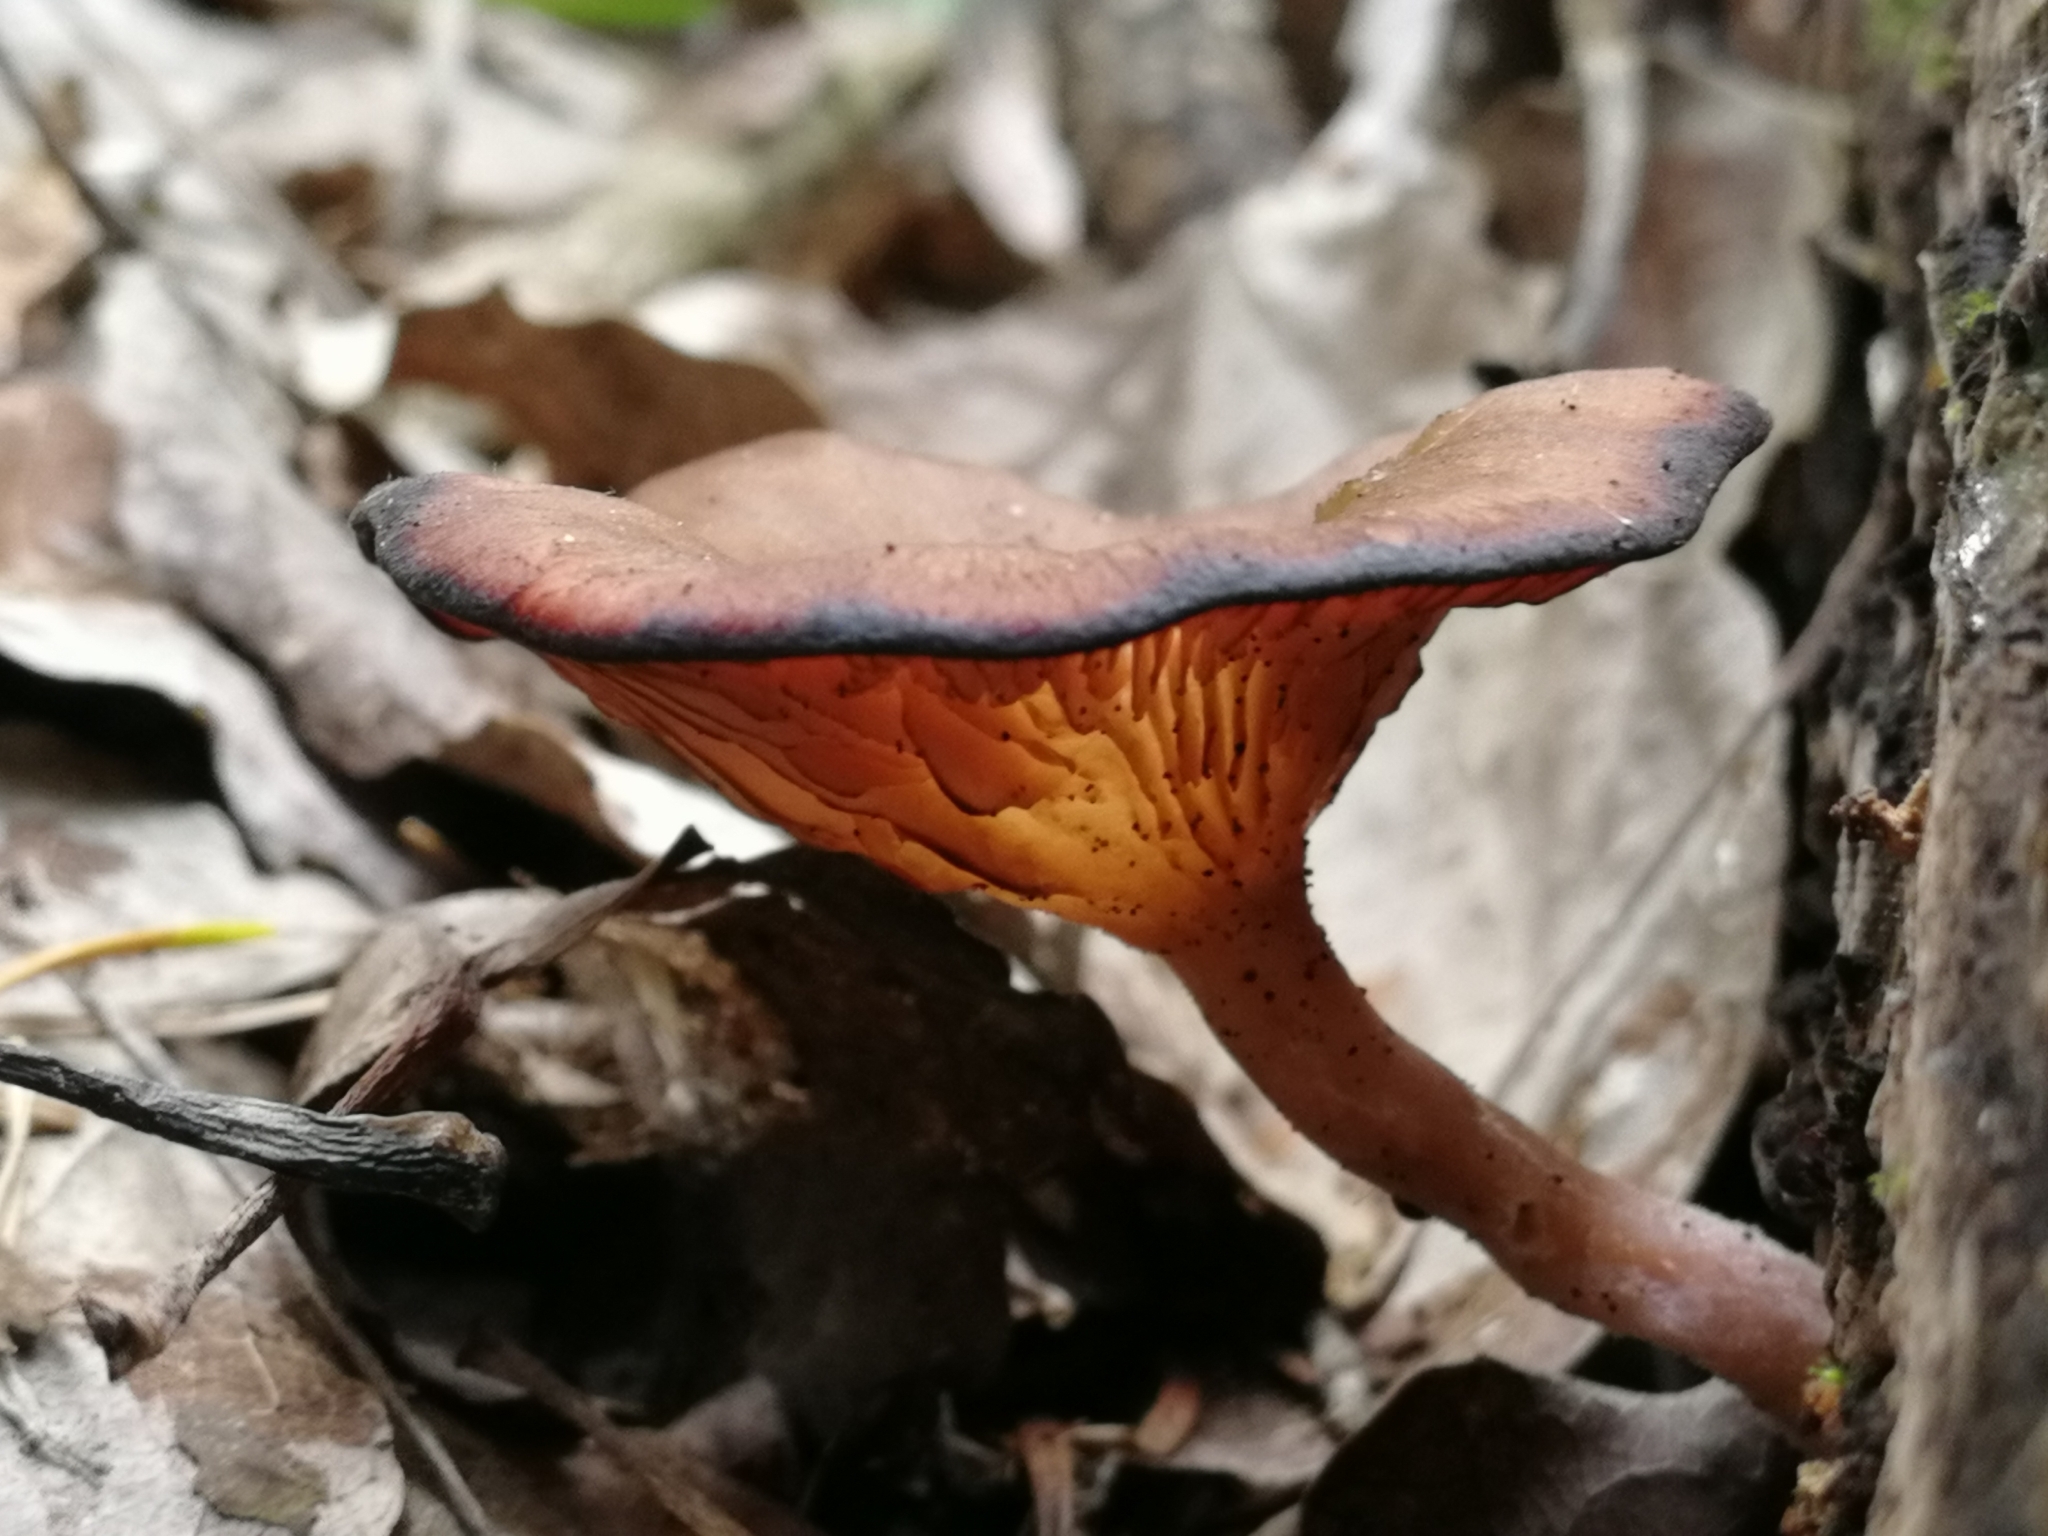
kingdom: Fungi
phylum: Basidiomycota
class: Agaricomycetes
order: Agaricales
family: Hygrophoraceae
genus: Arrhenia
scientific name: Arrhenia discorosea
